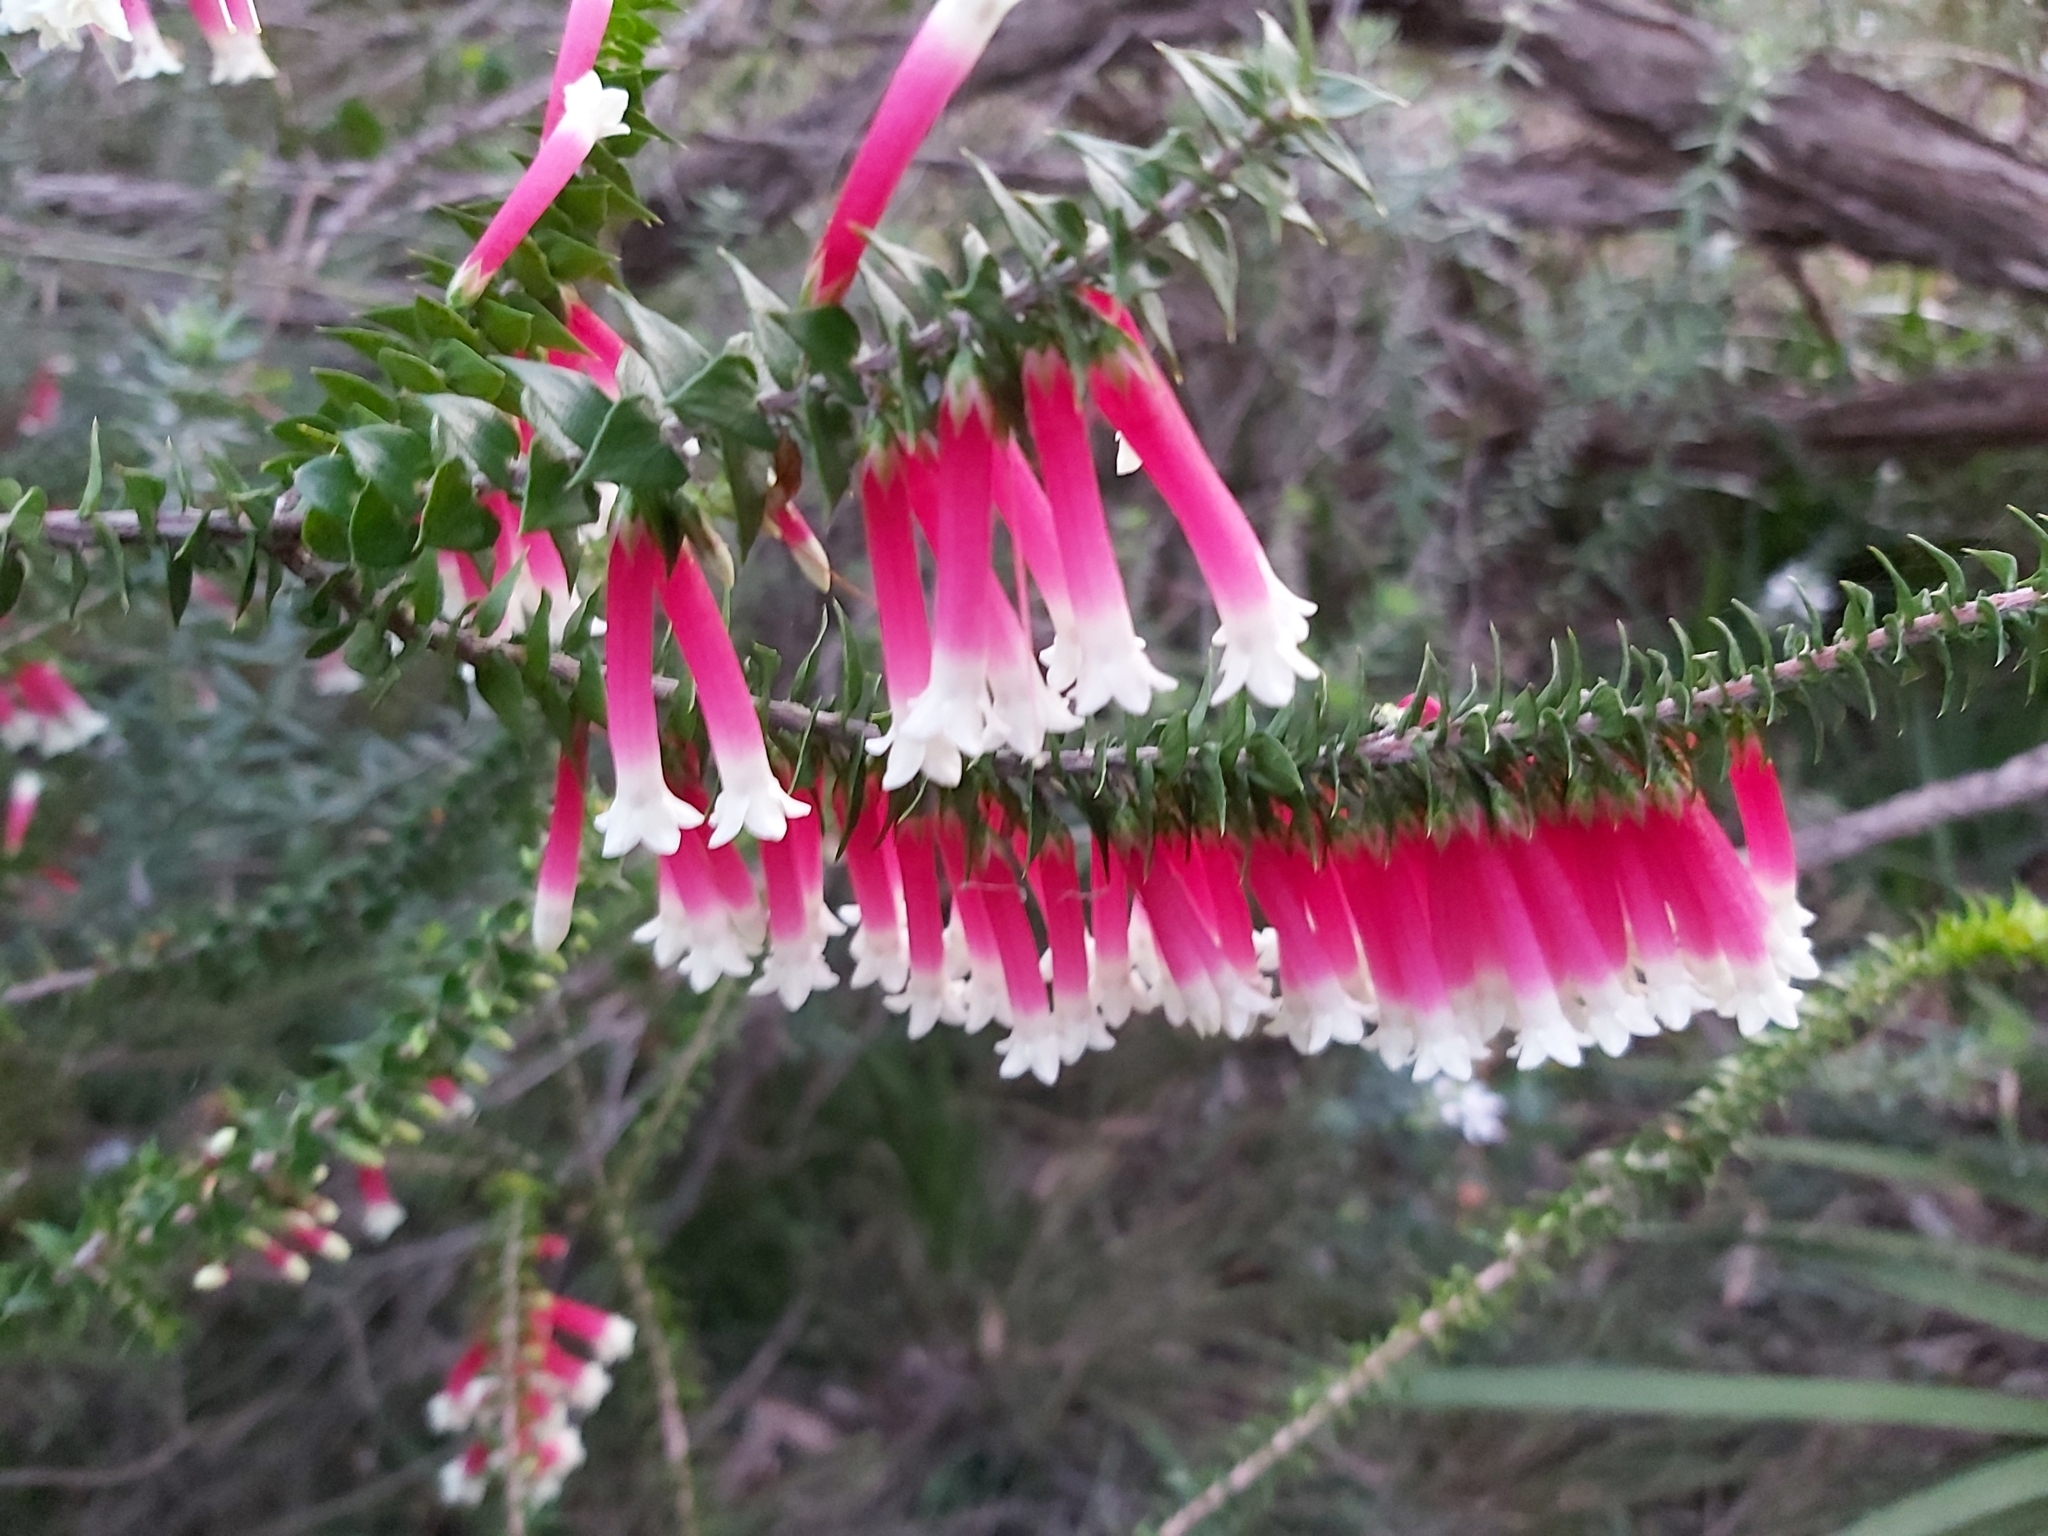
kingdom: Plantae
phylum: Tracheophyta
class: Magnoliopsida
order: Ericales
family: Ericaceae
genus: Epacris
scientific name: Epacris longiflora
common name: Fuchsia-heath
